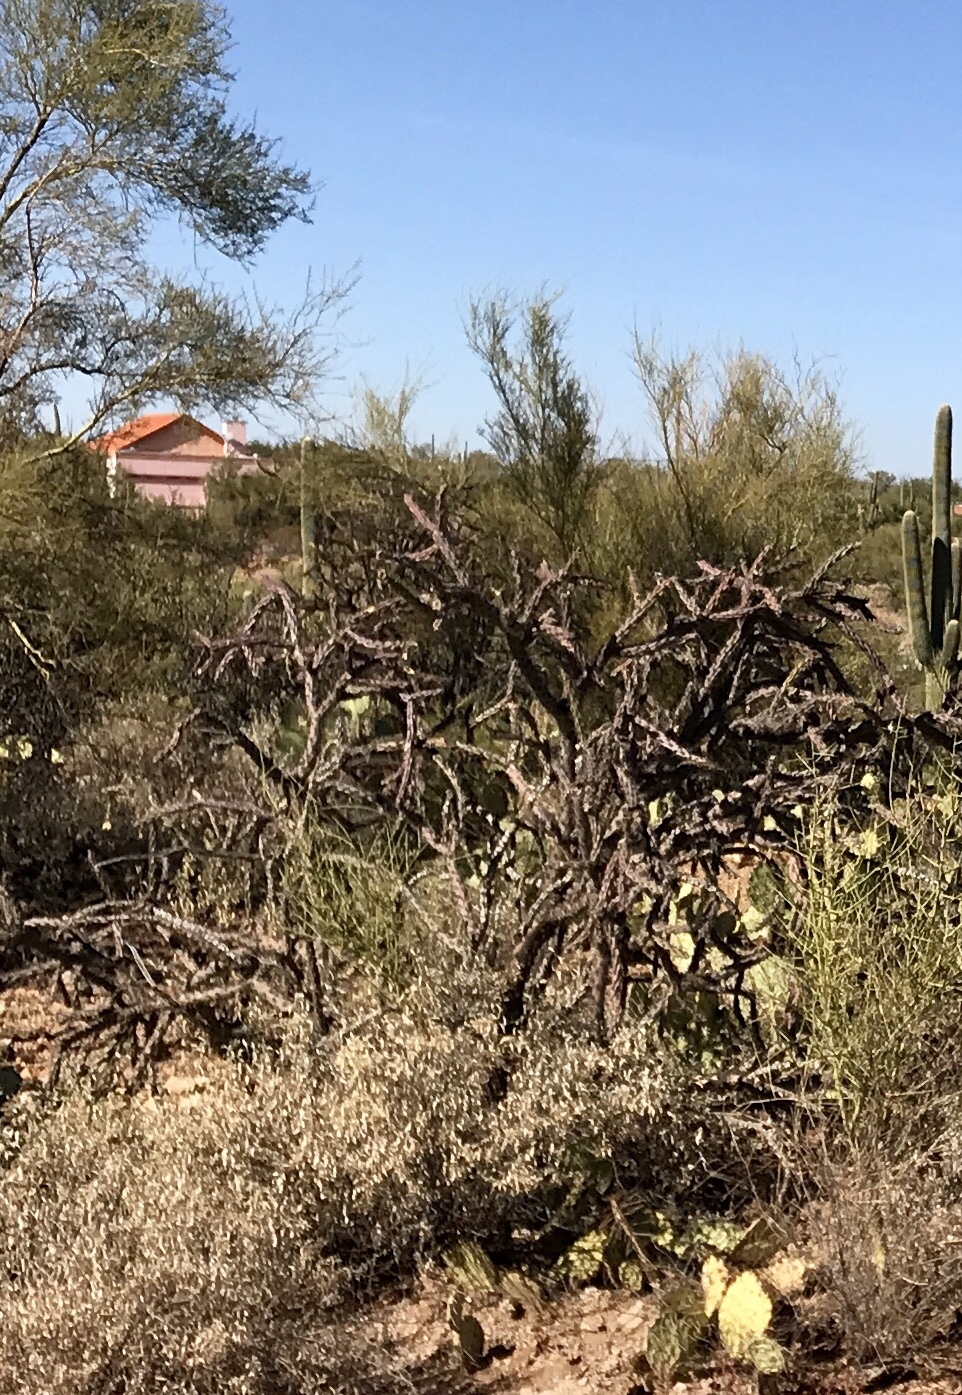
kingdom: Plantae
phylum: Tracheophyta
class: Magnoliopsida
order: Caryophyllales
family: Cactaceae
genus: Cylindropuntia
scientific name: Cylindropuntia thurberi
